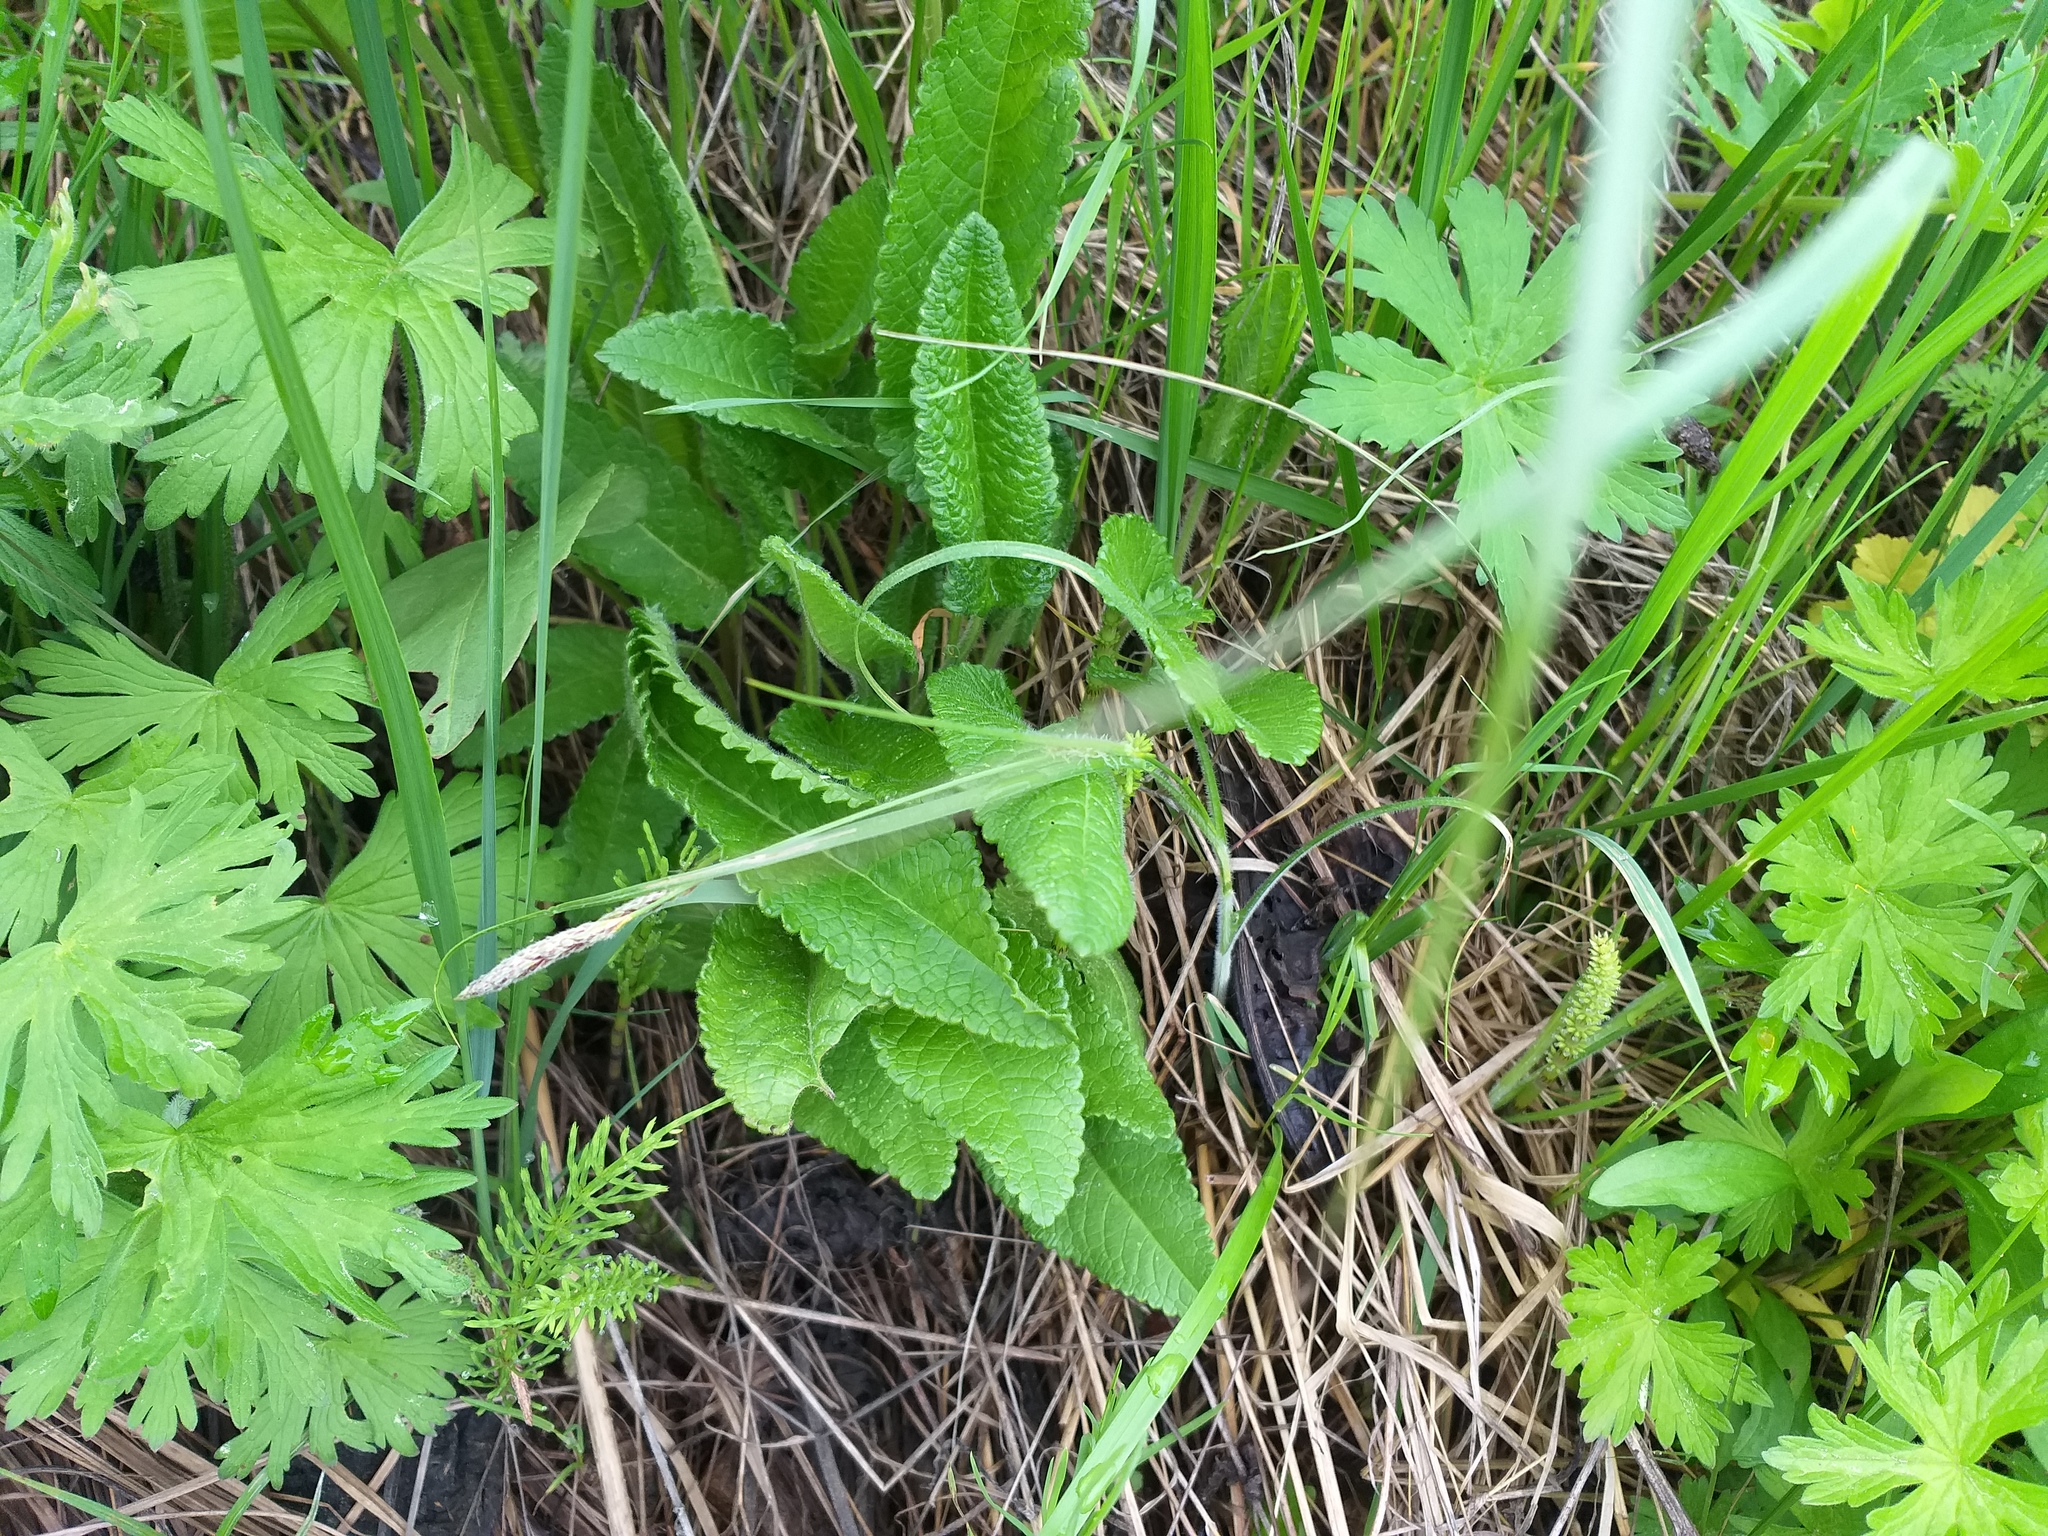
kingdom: Plantae
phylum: Tracheophyta
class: Magnoliopsida
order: Lamiales
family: Lamiaceae
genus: Betonica
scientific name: Betonica officinalis
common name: Bishop's-wort
